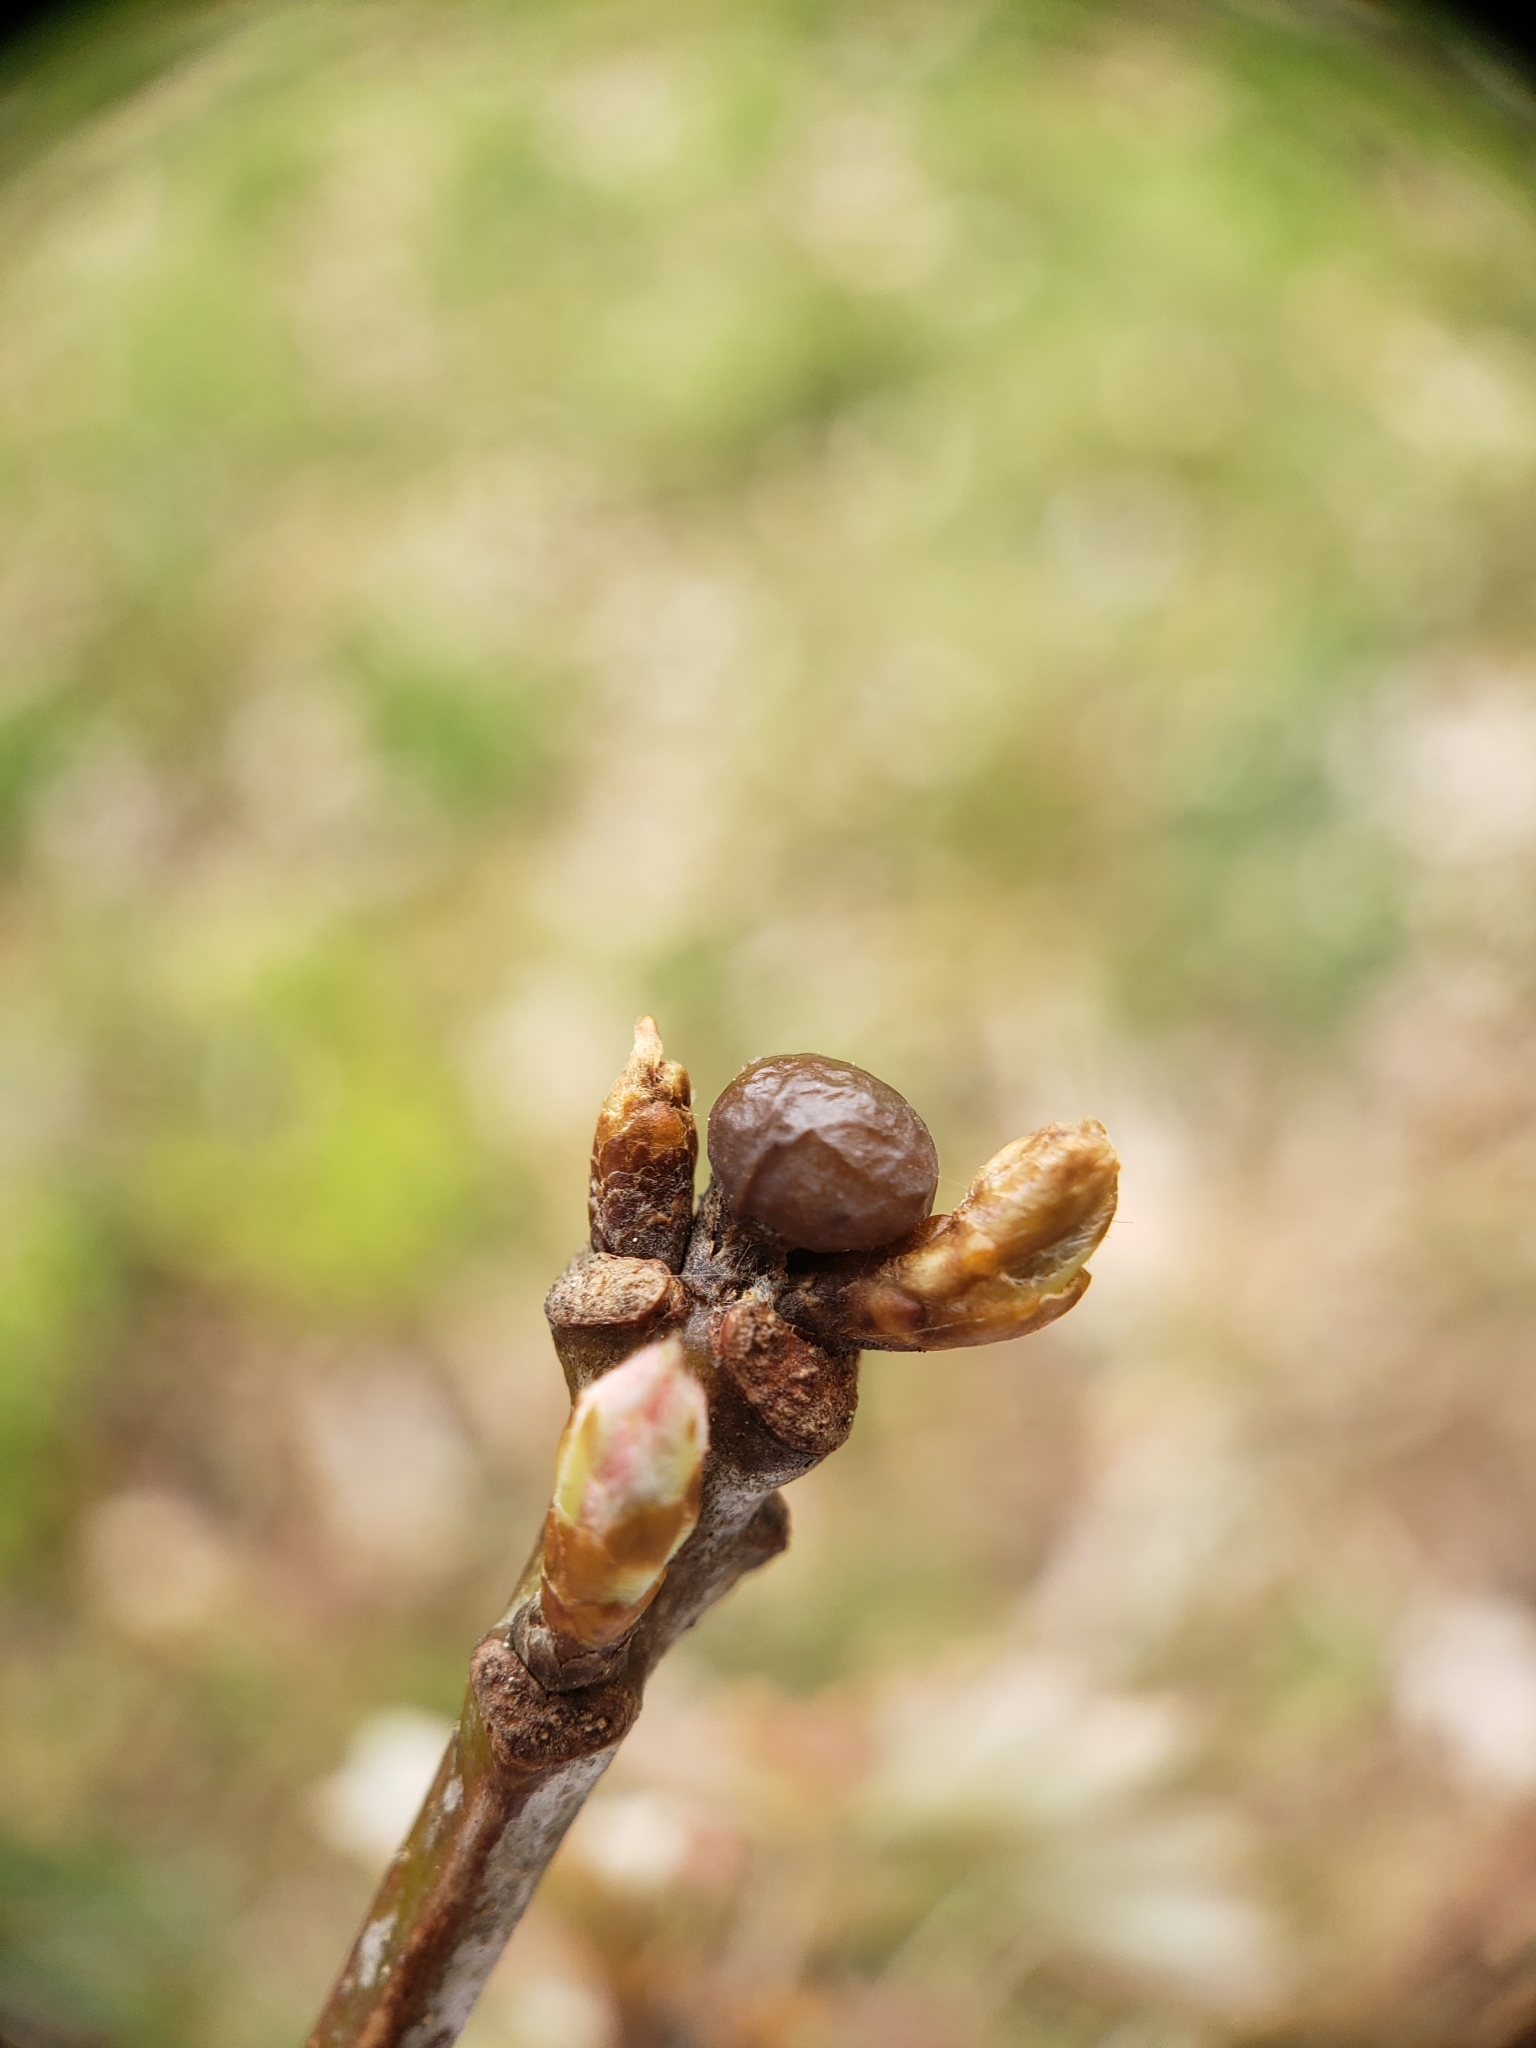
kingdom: Animalia
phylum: Arthropoda
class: Insecta
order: Hymenoptera
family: Cynipidae
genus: Neuroterus
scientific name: Neuroterus
